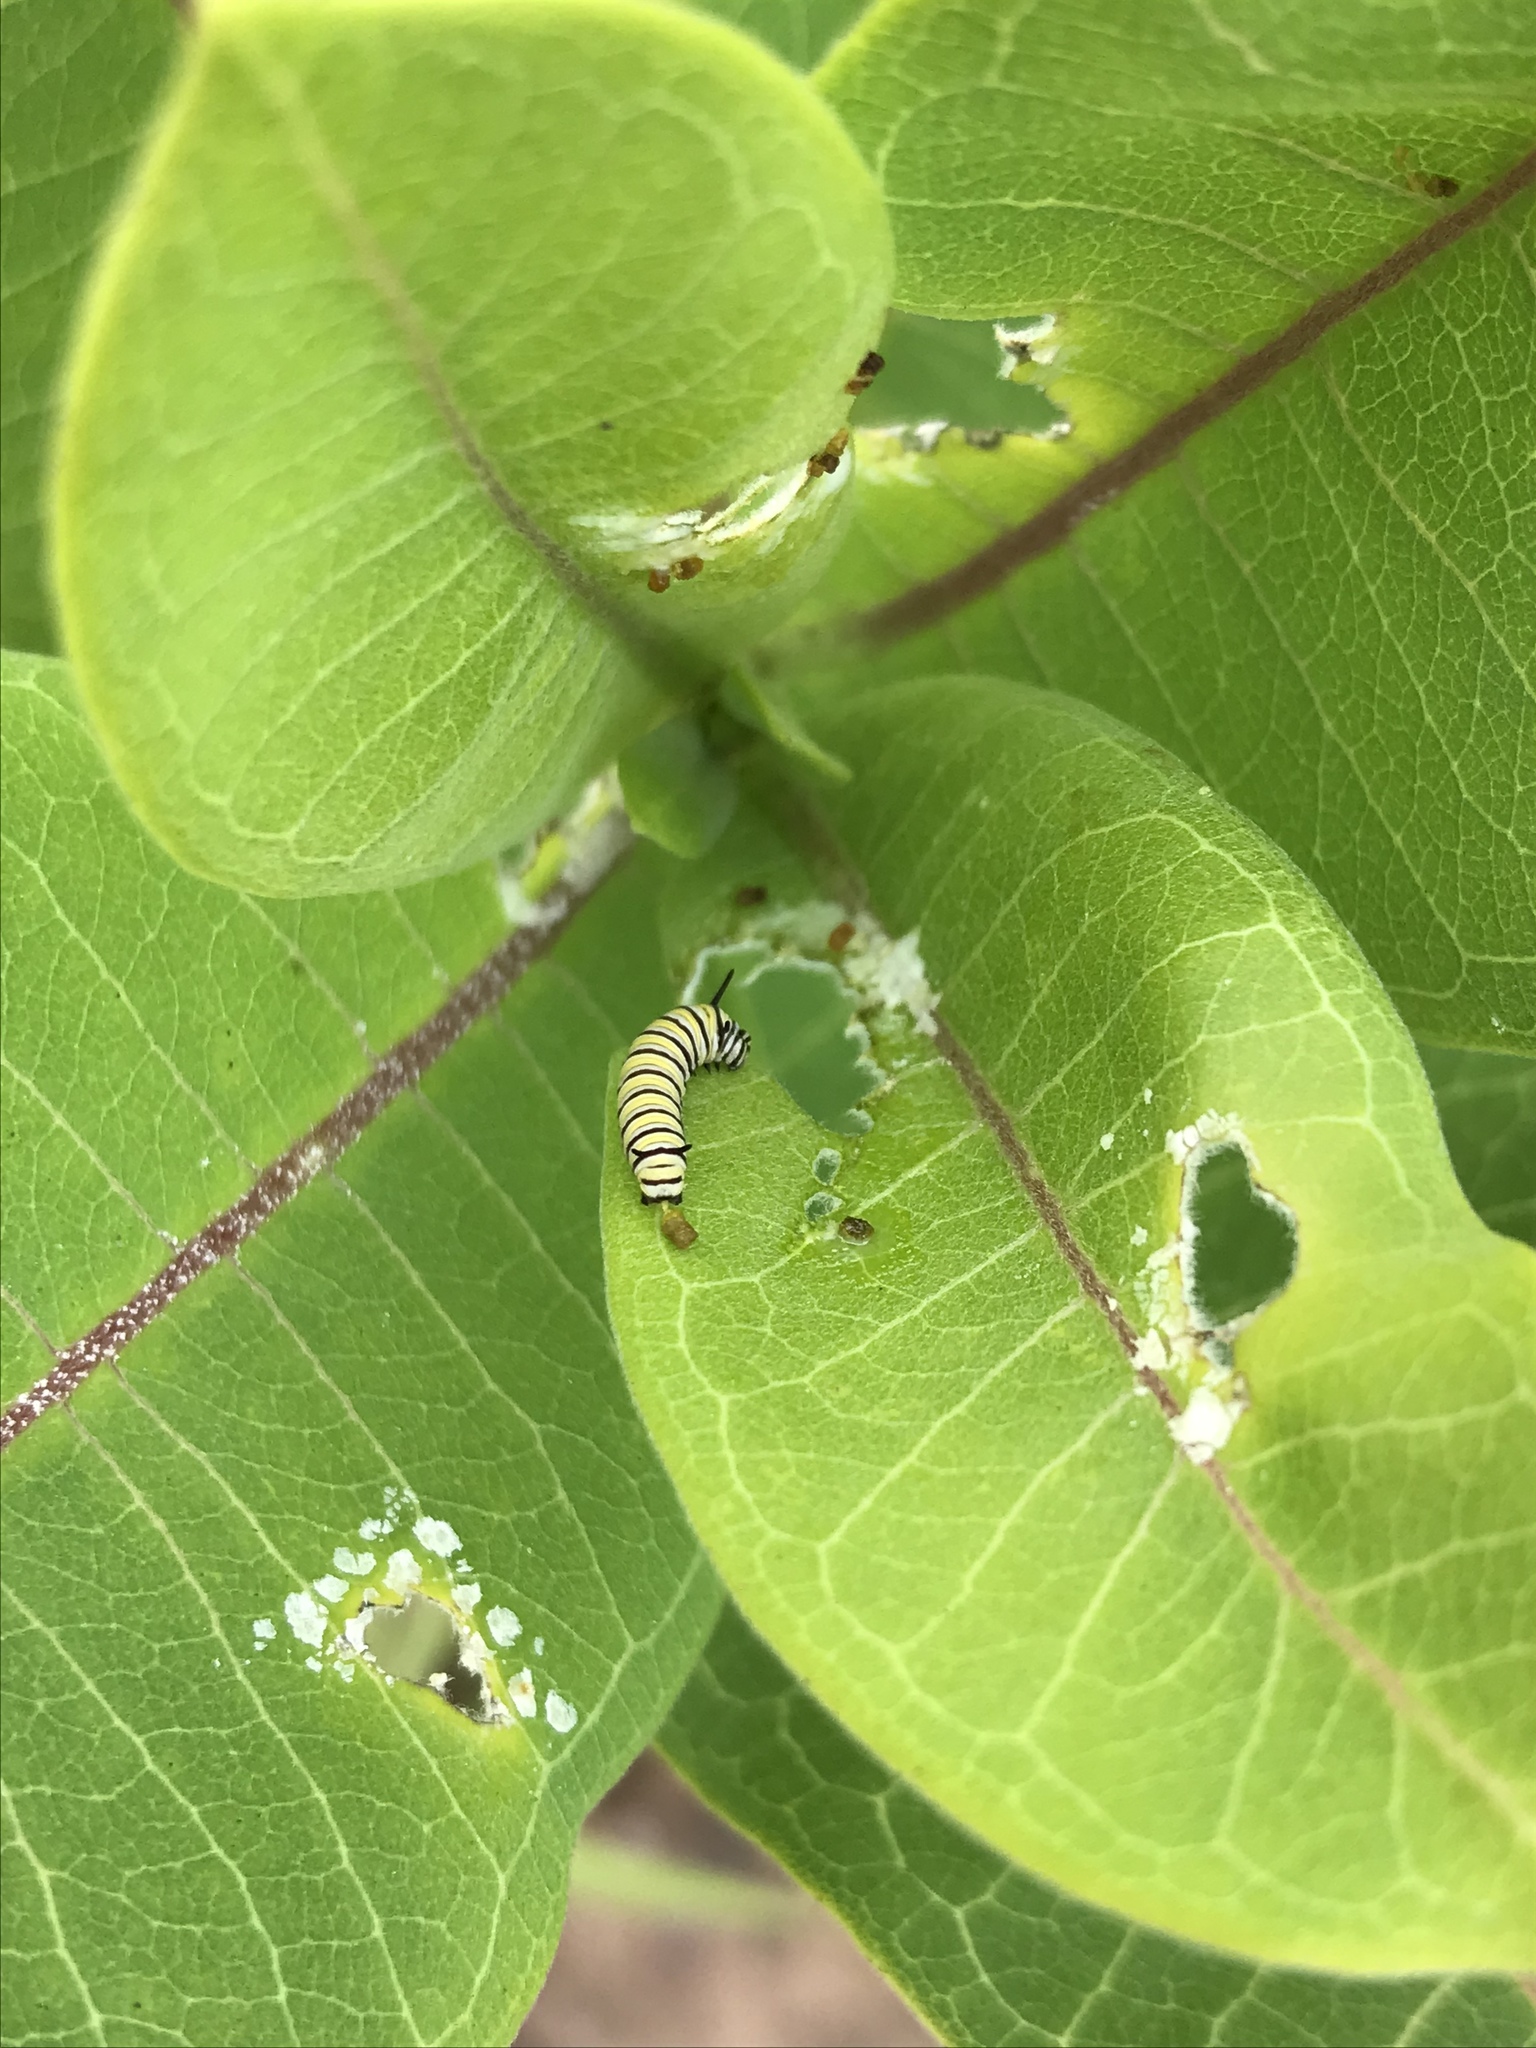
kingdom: Animalia
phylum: Arthropoda
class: Insecta
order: Lepidoptera
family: Nymphalidae
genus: Danaus
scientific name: Danaus plexippus
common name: Monarch
